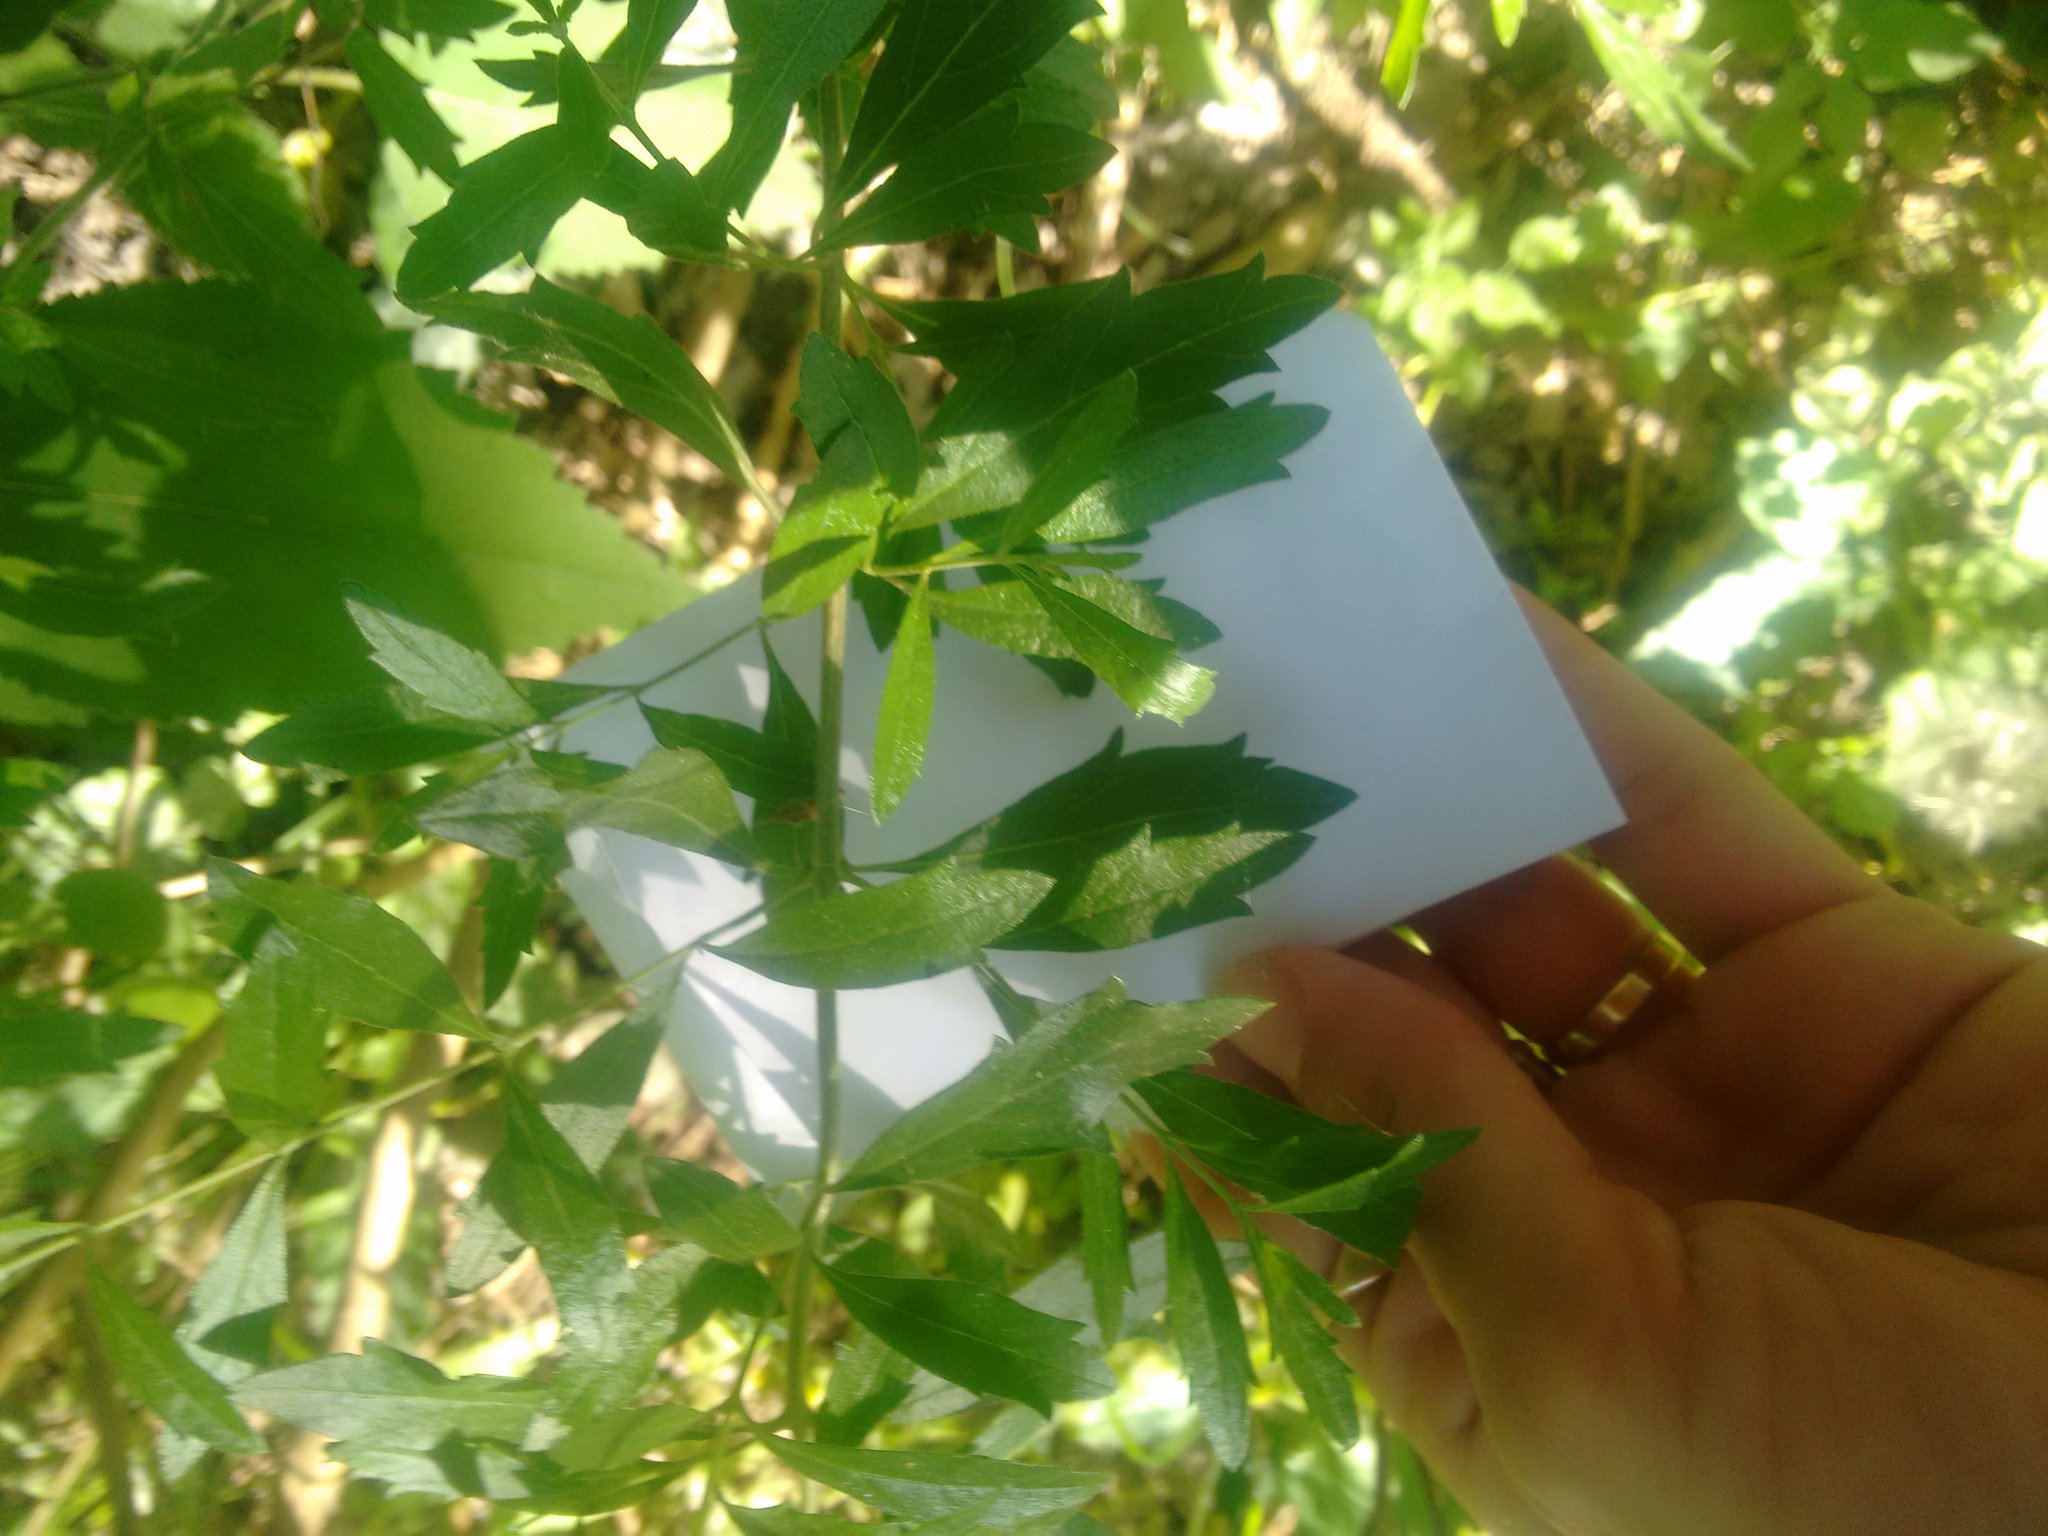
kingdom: Plantae
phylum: Tracheophyta
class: Magnoliopsida
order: Lamiales
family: Verbenaceae
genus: Aloysia
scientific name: Aloysia gratissima
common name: Common bee-brush
